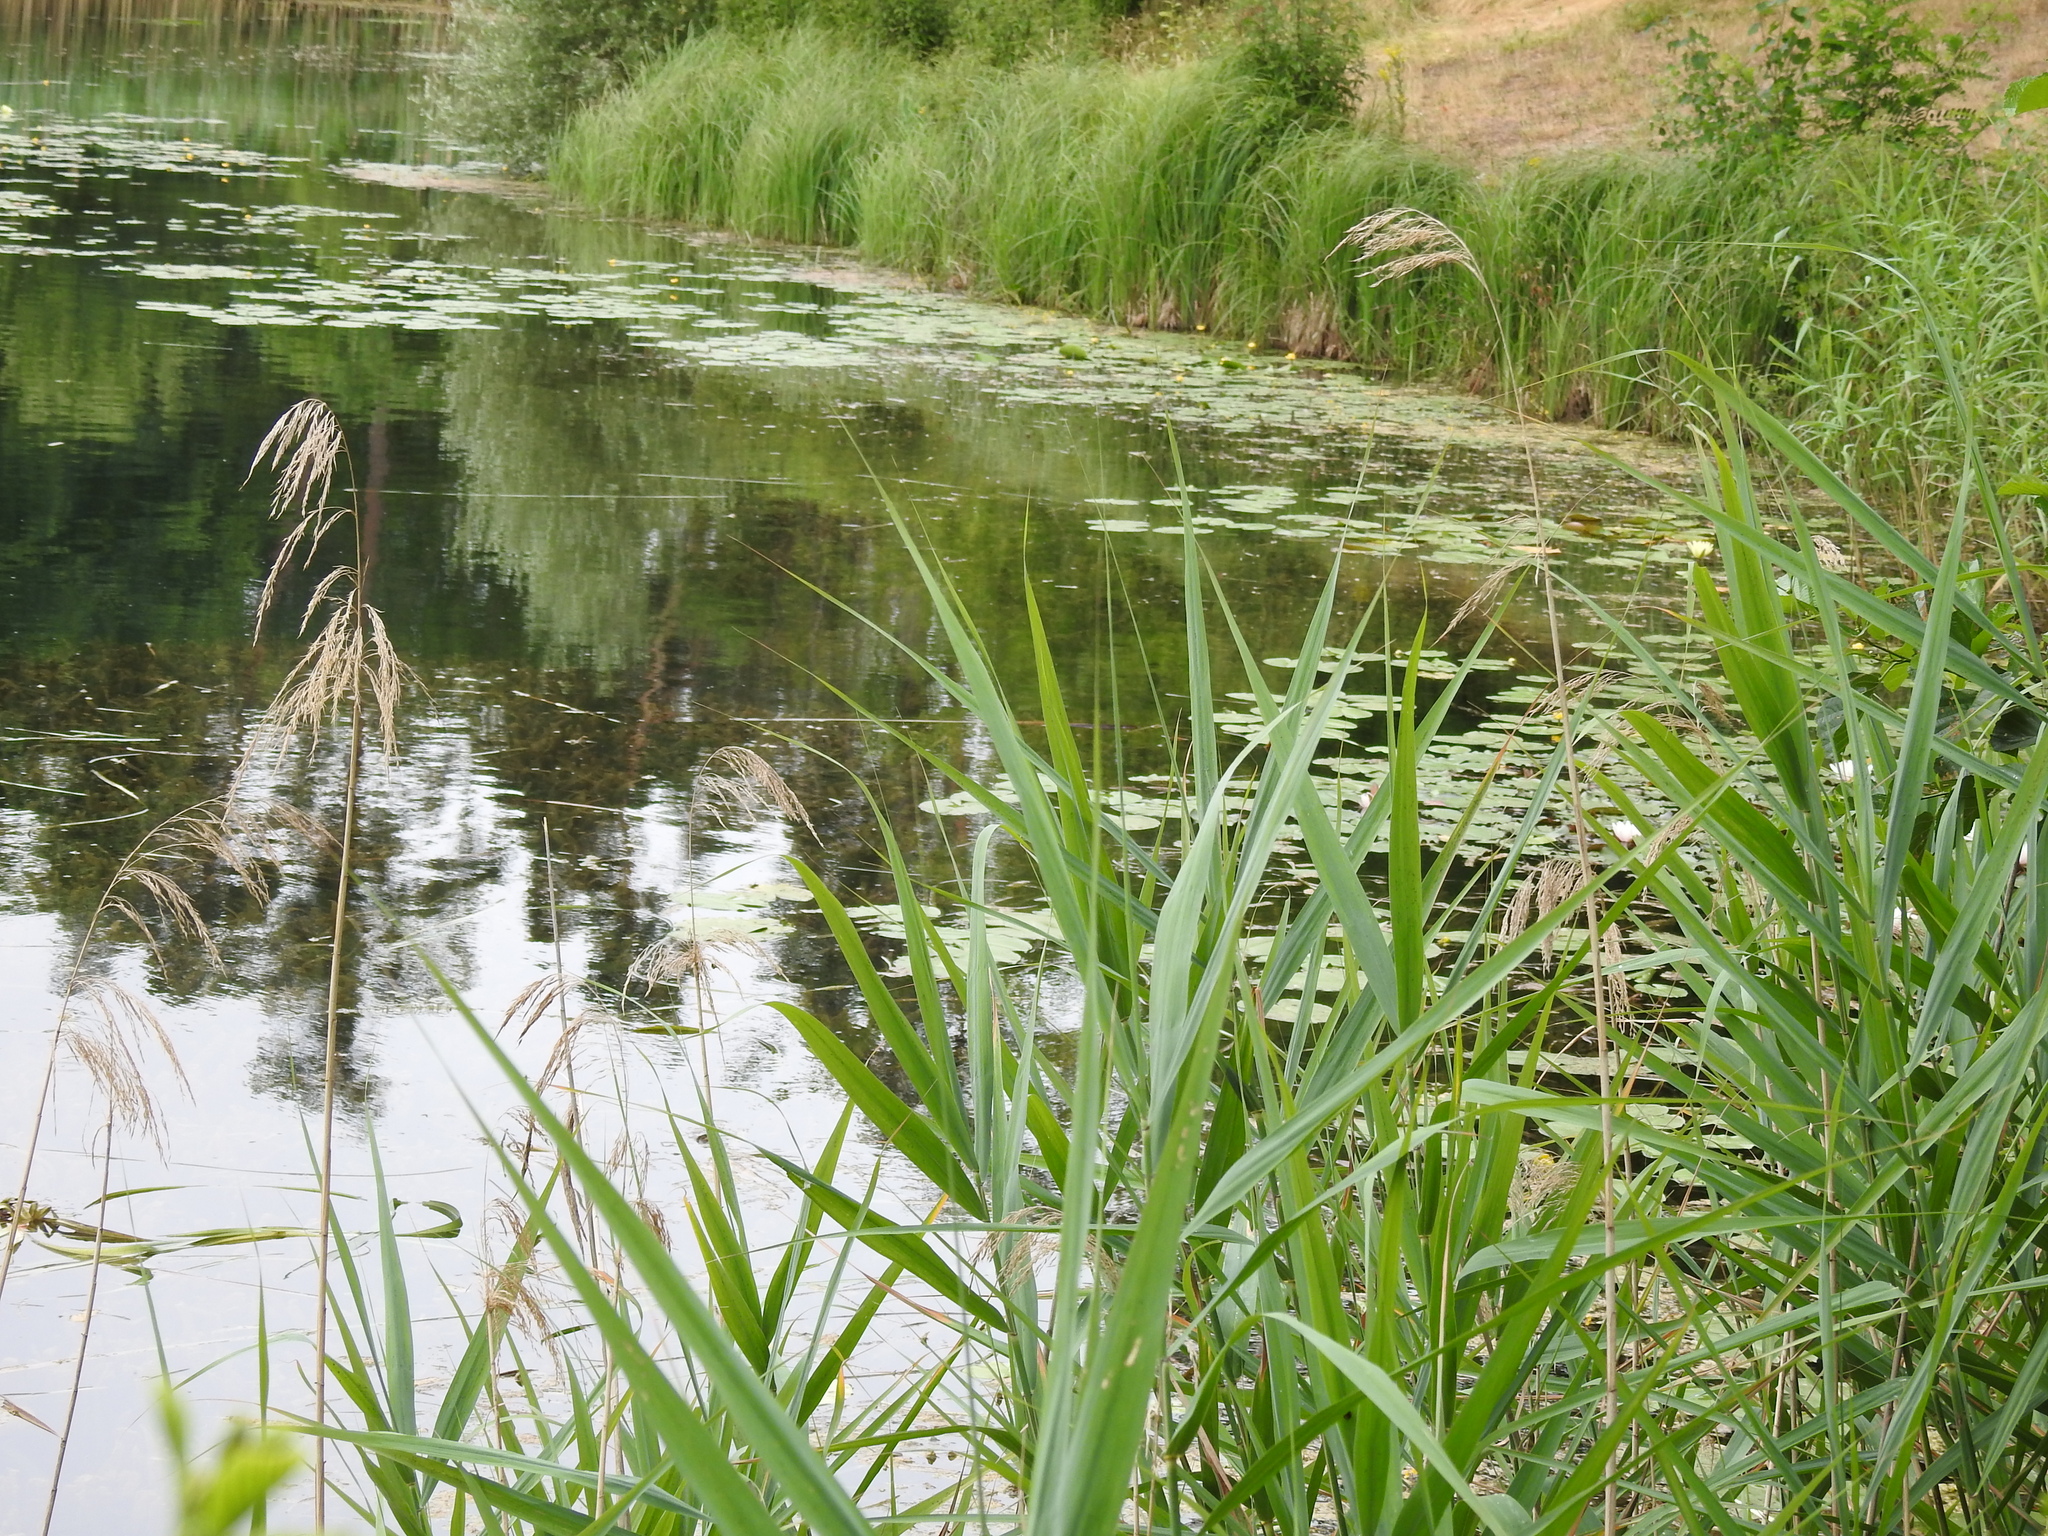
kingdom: Plantae
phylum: Tracheophyta
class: Liliopsida
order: Poales
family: Poaceae
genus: Phragmites
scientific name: Phragmites australis
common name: Common reed
